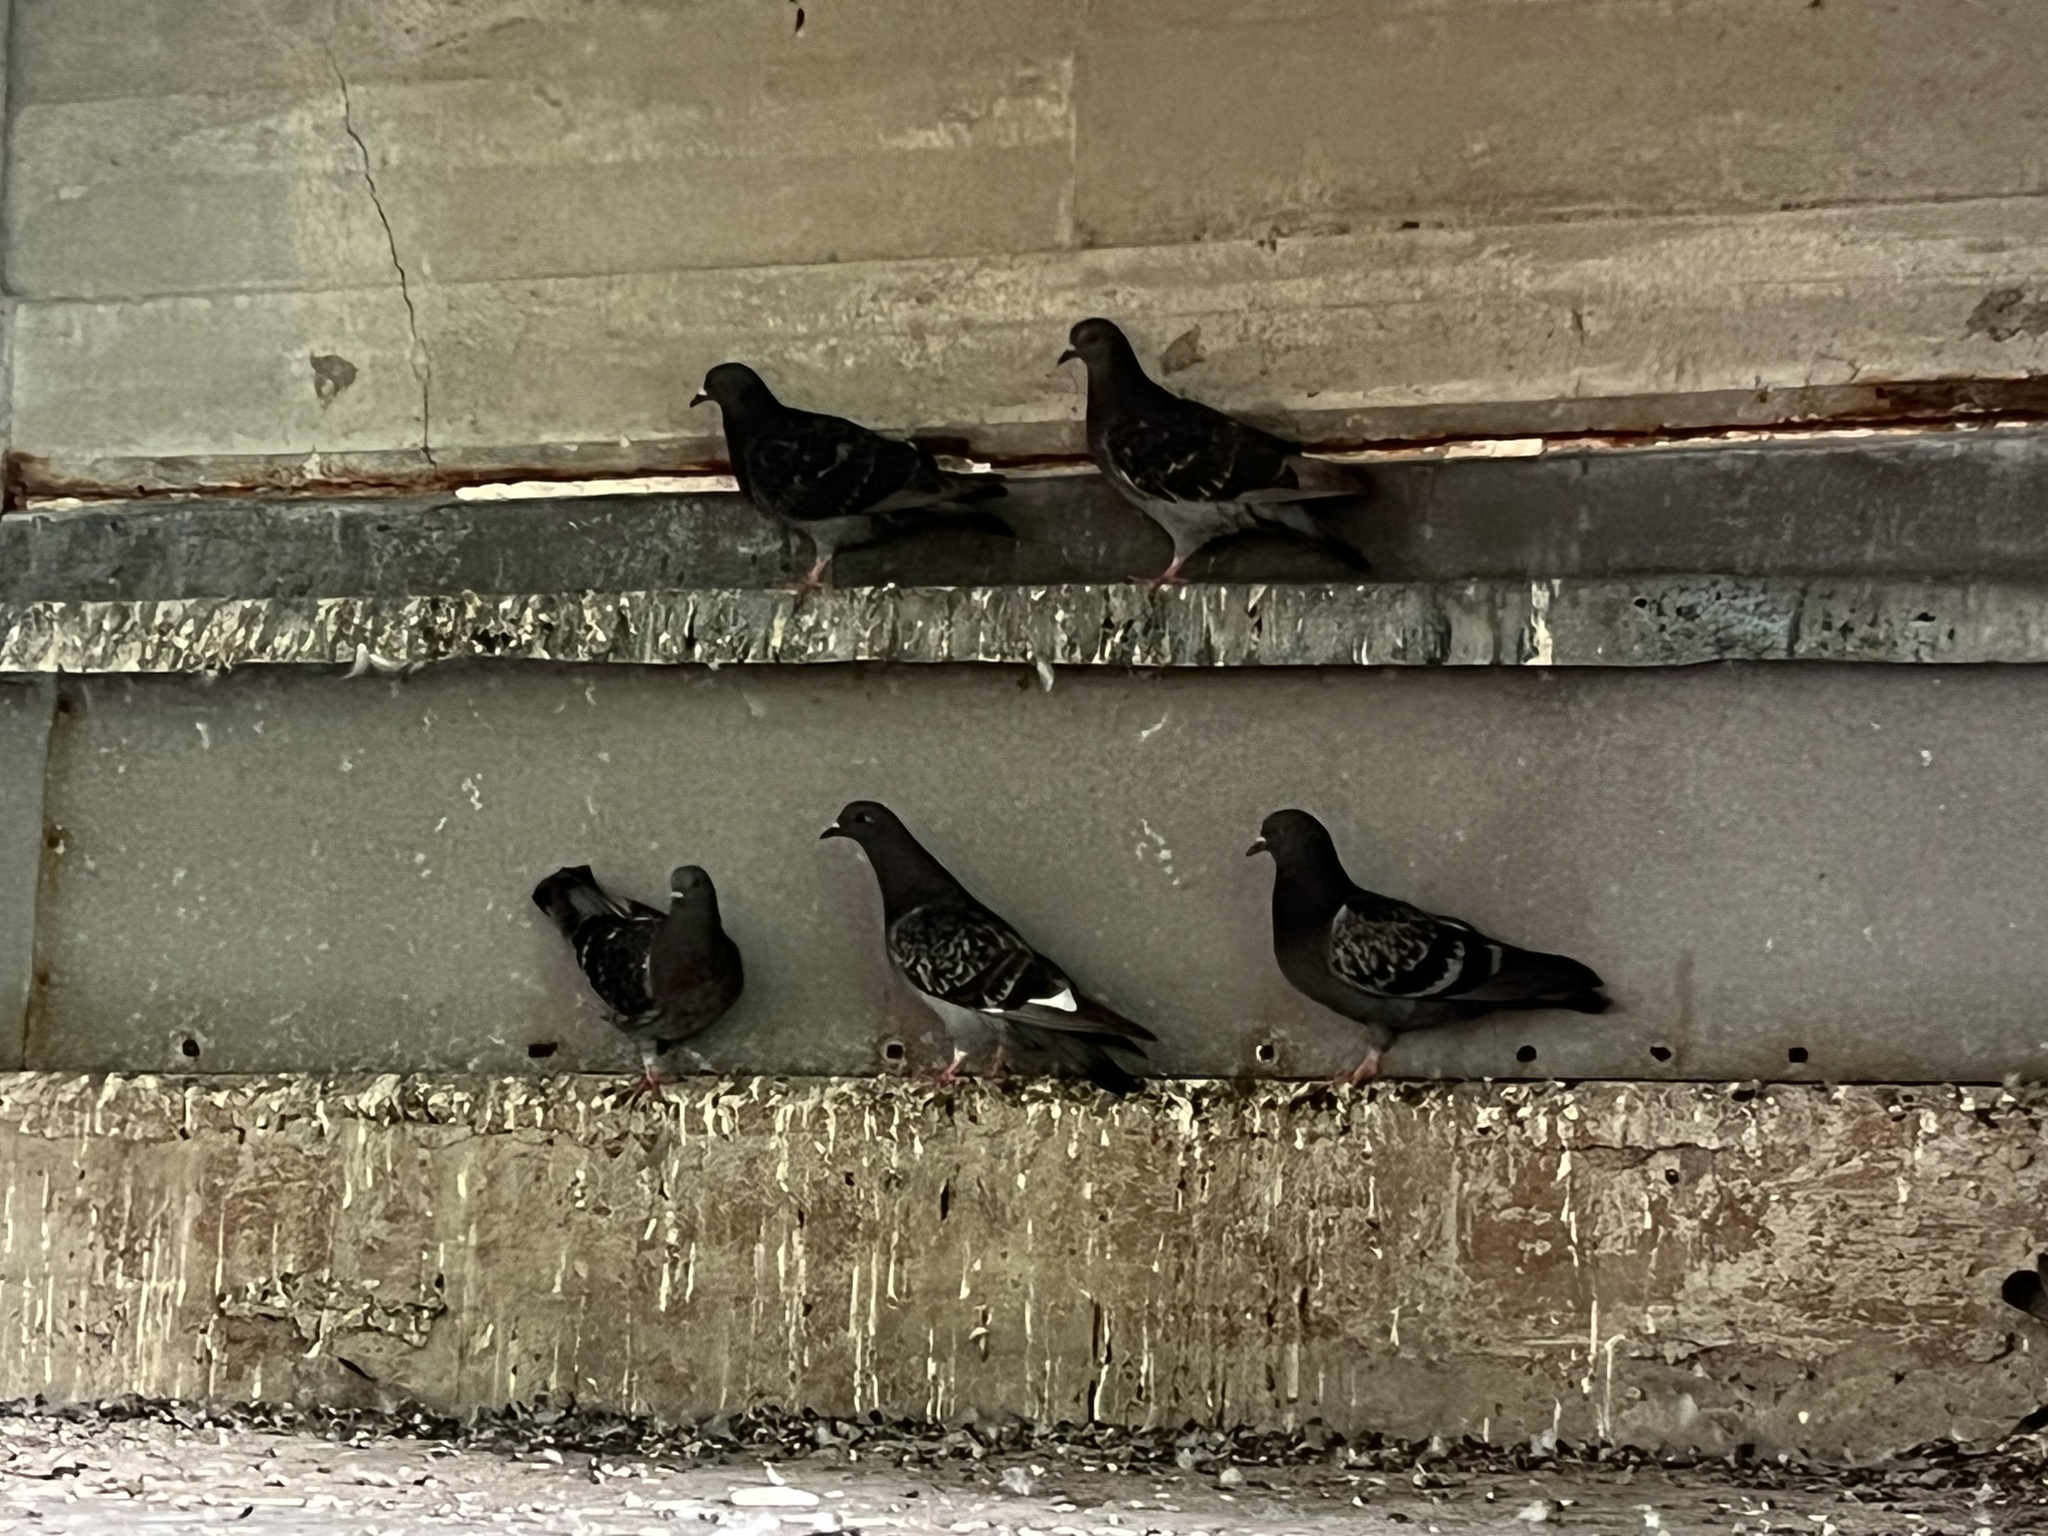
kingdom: Animalia
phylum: Chordata
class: Aves
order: Columbiformes
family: Columbidae
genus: Columba
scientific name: Columba livia
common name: Rock pigeon
